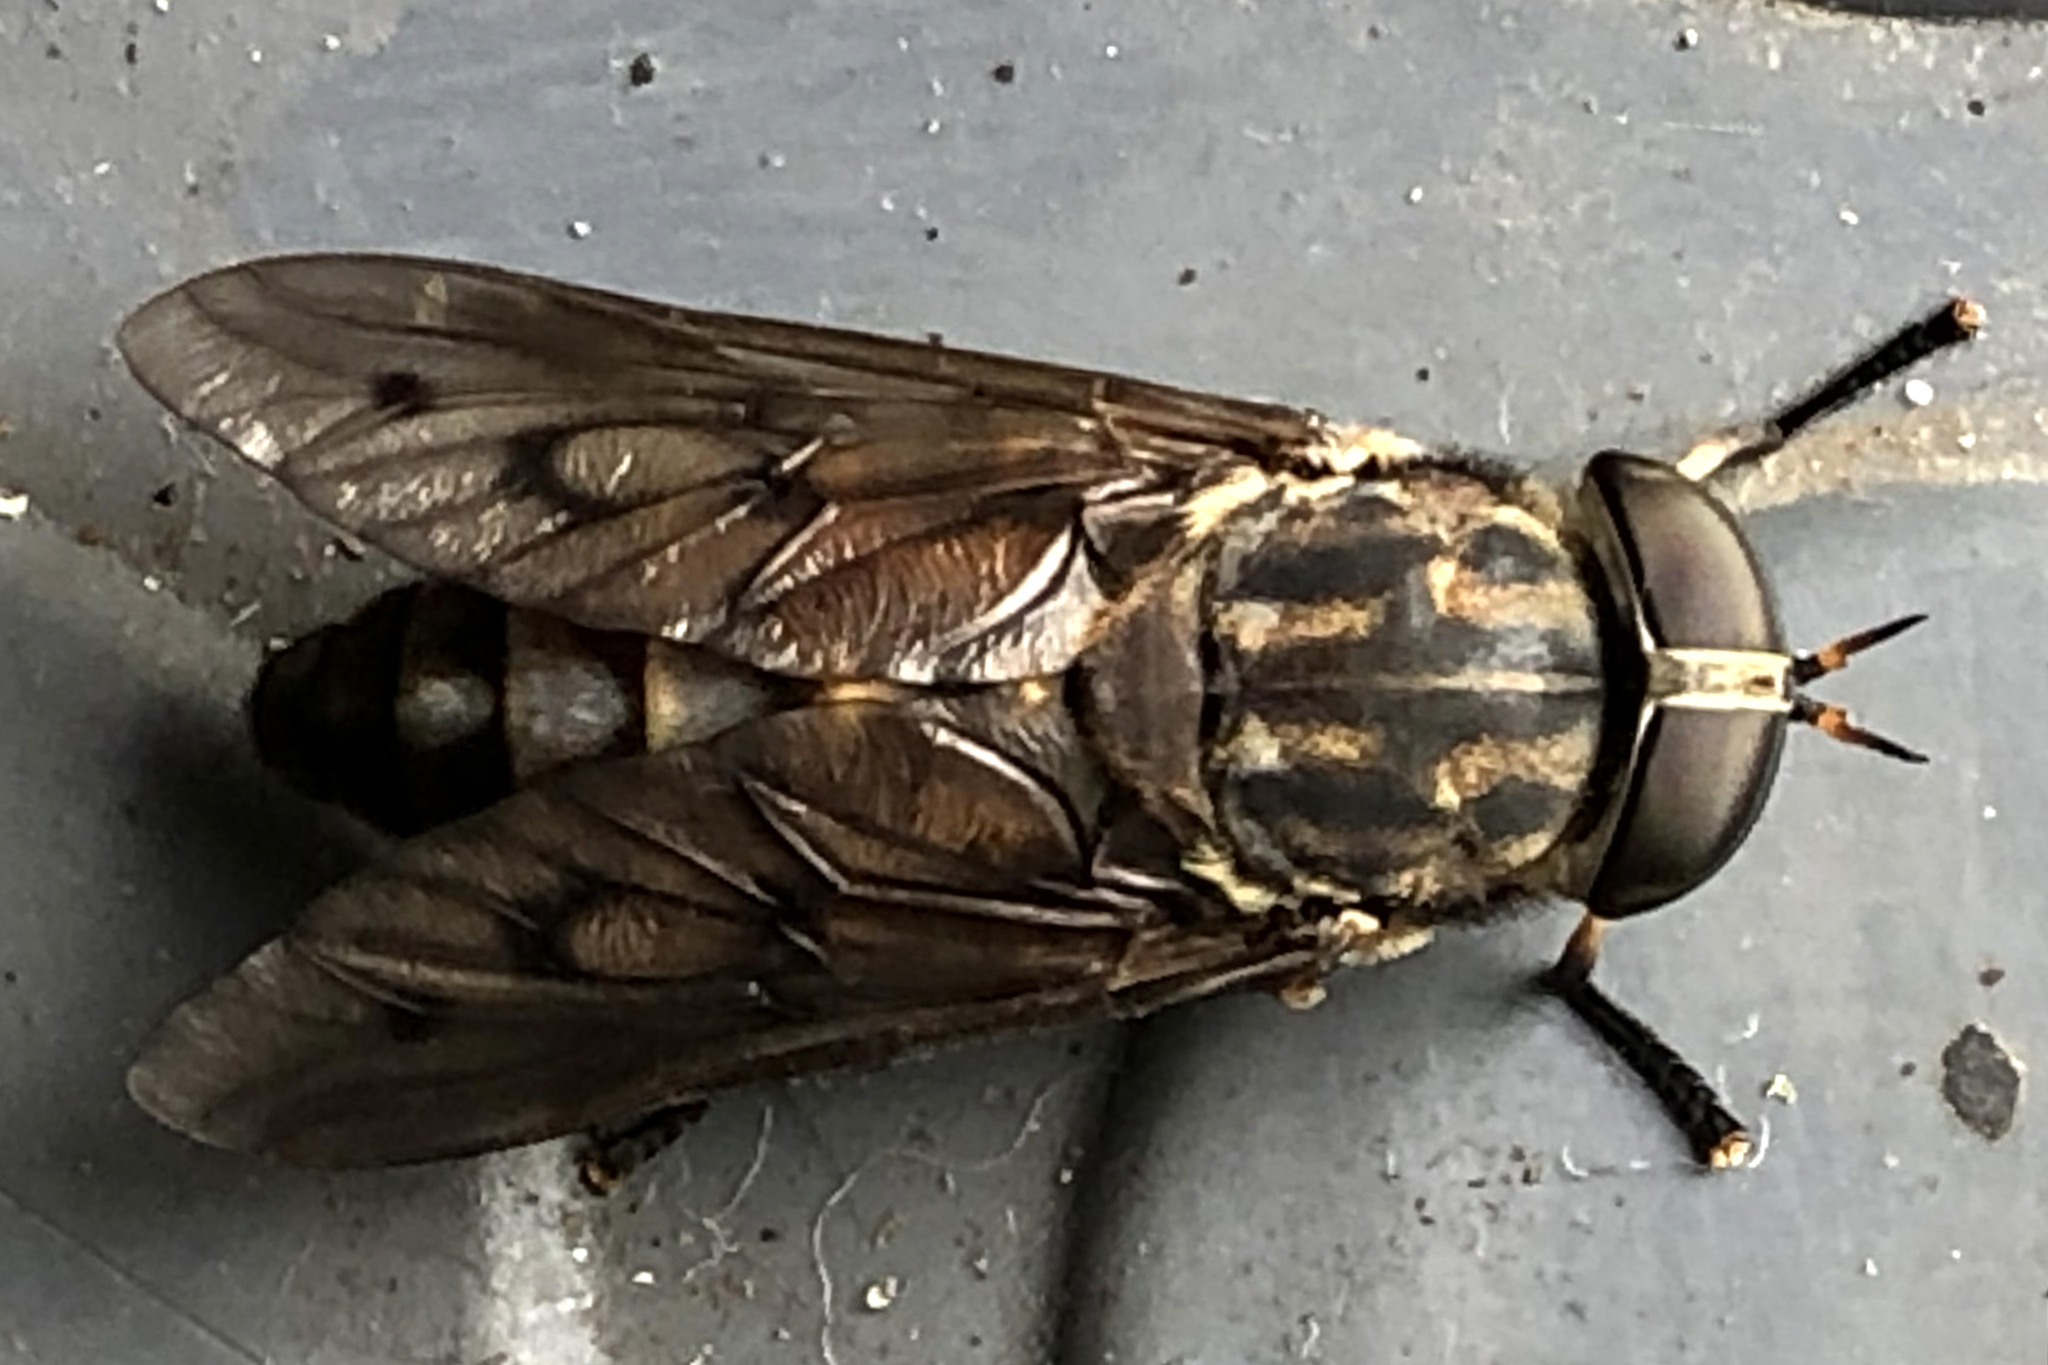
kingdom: Animalia
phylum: Arthropoda
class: Insecta
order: Diptera
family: Tabanidae
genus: Tabanus
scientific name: Tabanus sulcifrons
